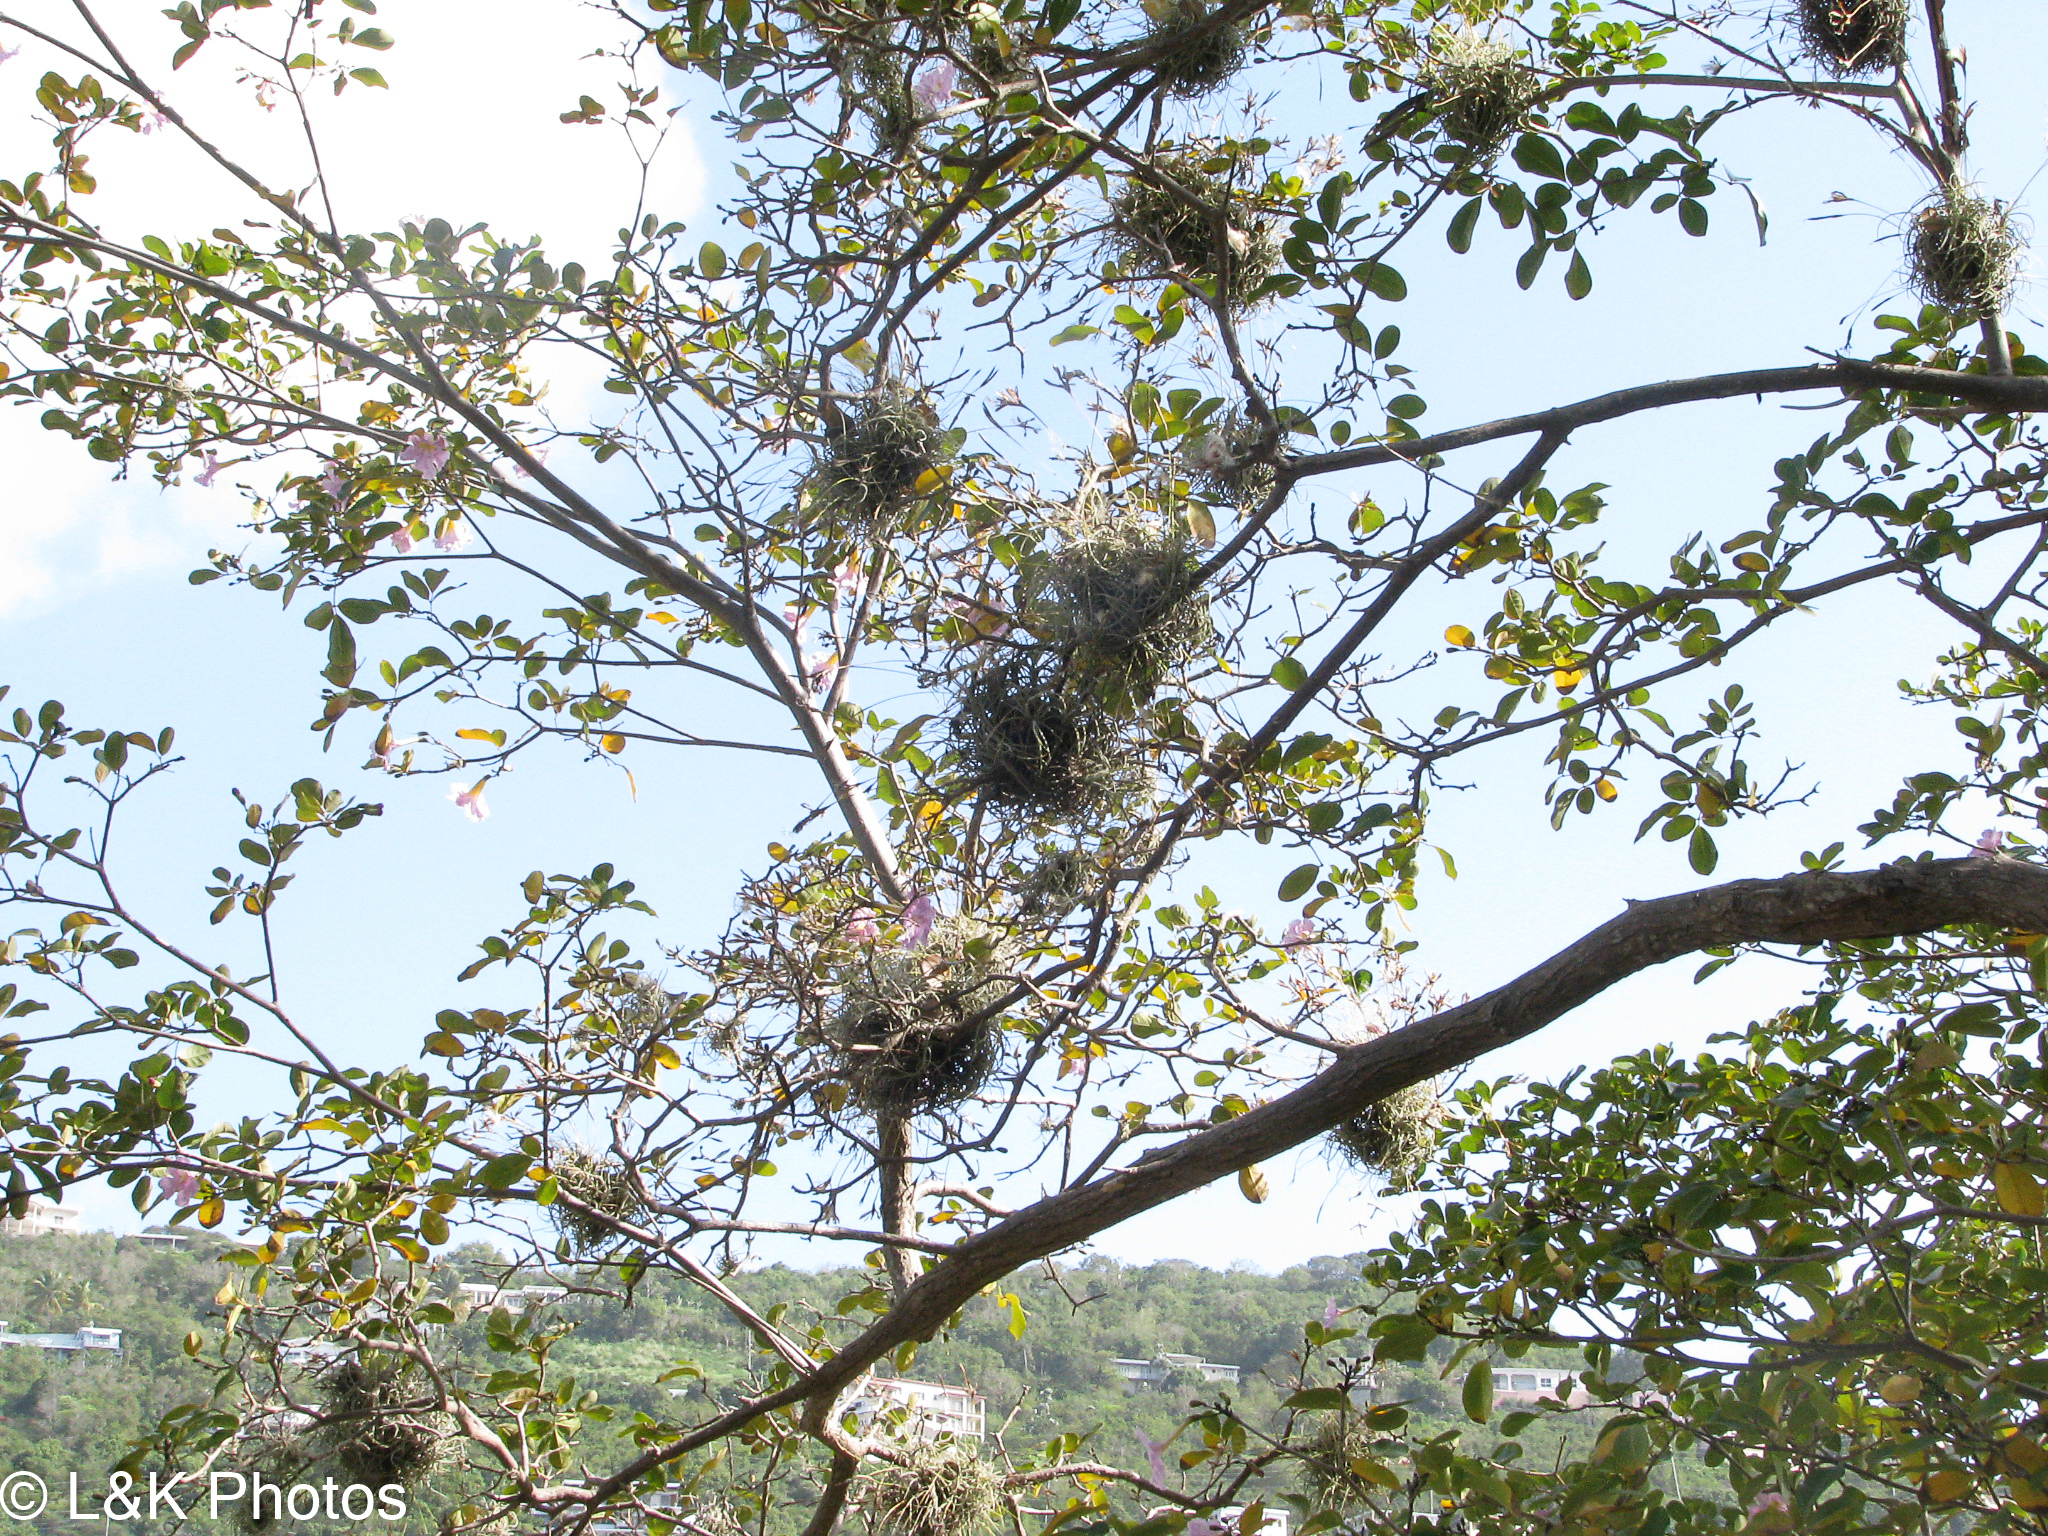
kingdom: Plantae
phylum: Tracheophyta
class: Liliopsida
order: Poales
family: Bromeliaceae
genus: Tillandsia
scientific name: Tillandsia recurvata
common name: Small ballmoss
